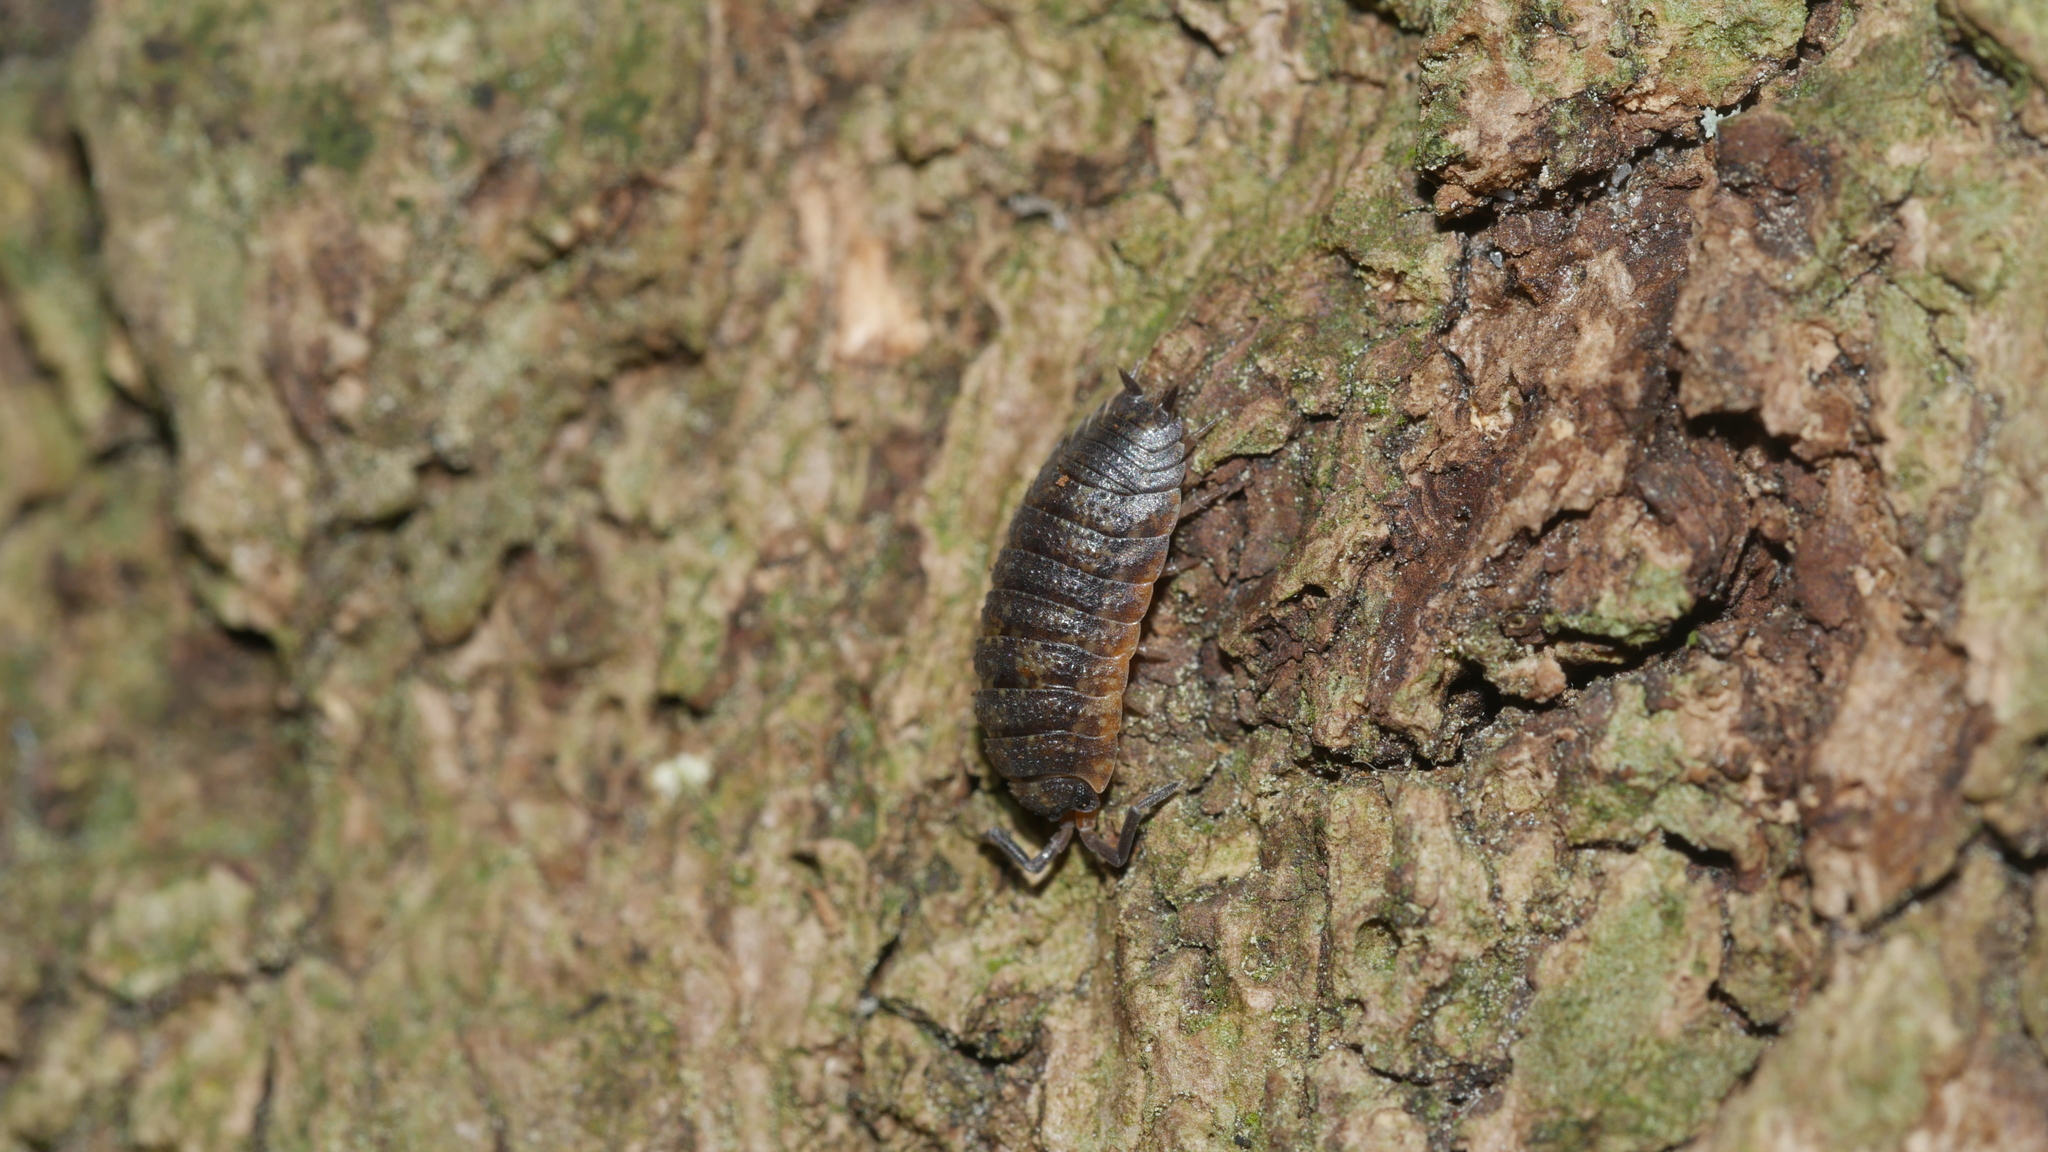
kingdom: Animalia
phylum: Arthropoda
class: Malacostraca
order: Isopoda
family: Porcellionidae
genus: Porcellio
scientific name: Porcellio scaber
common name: Common rough woodlouse
